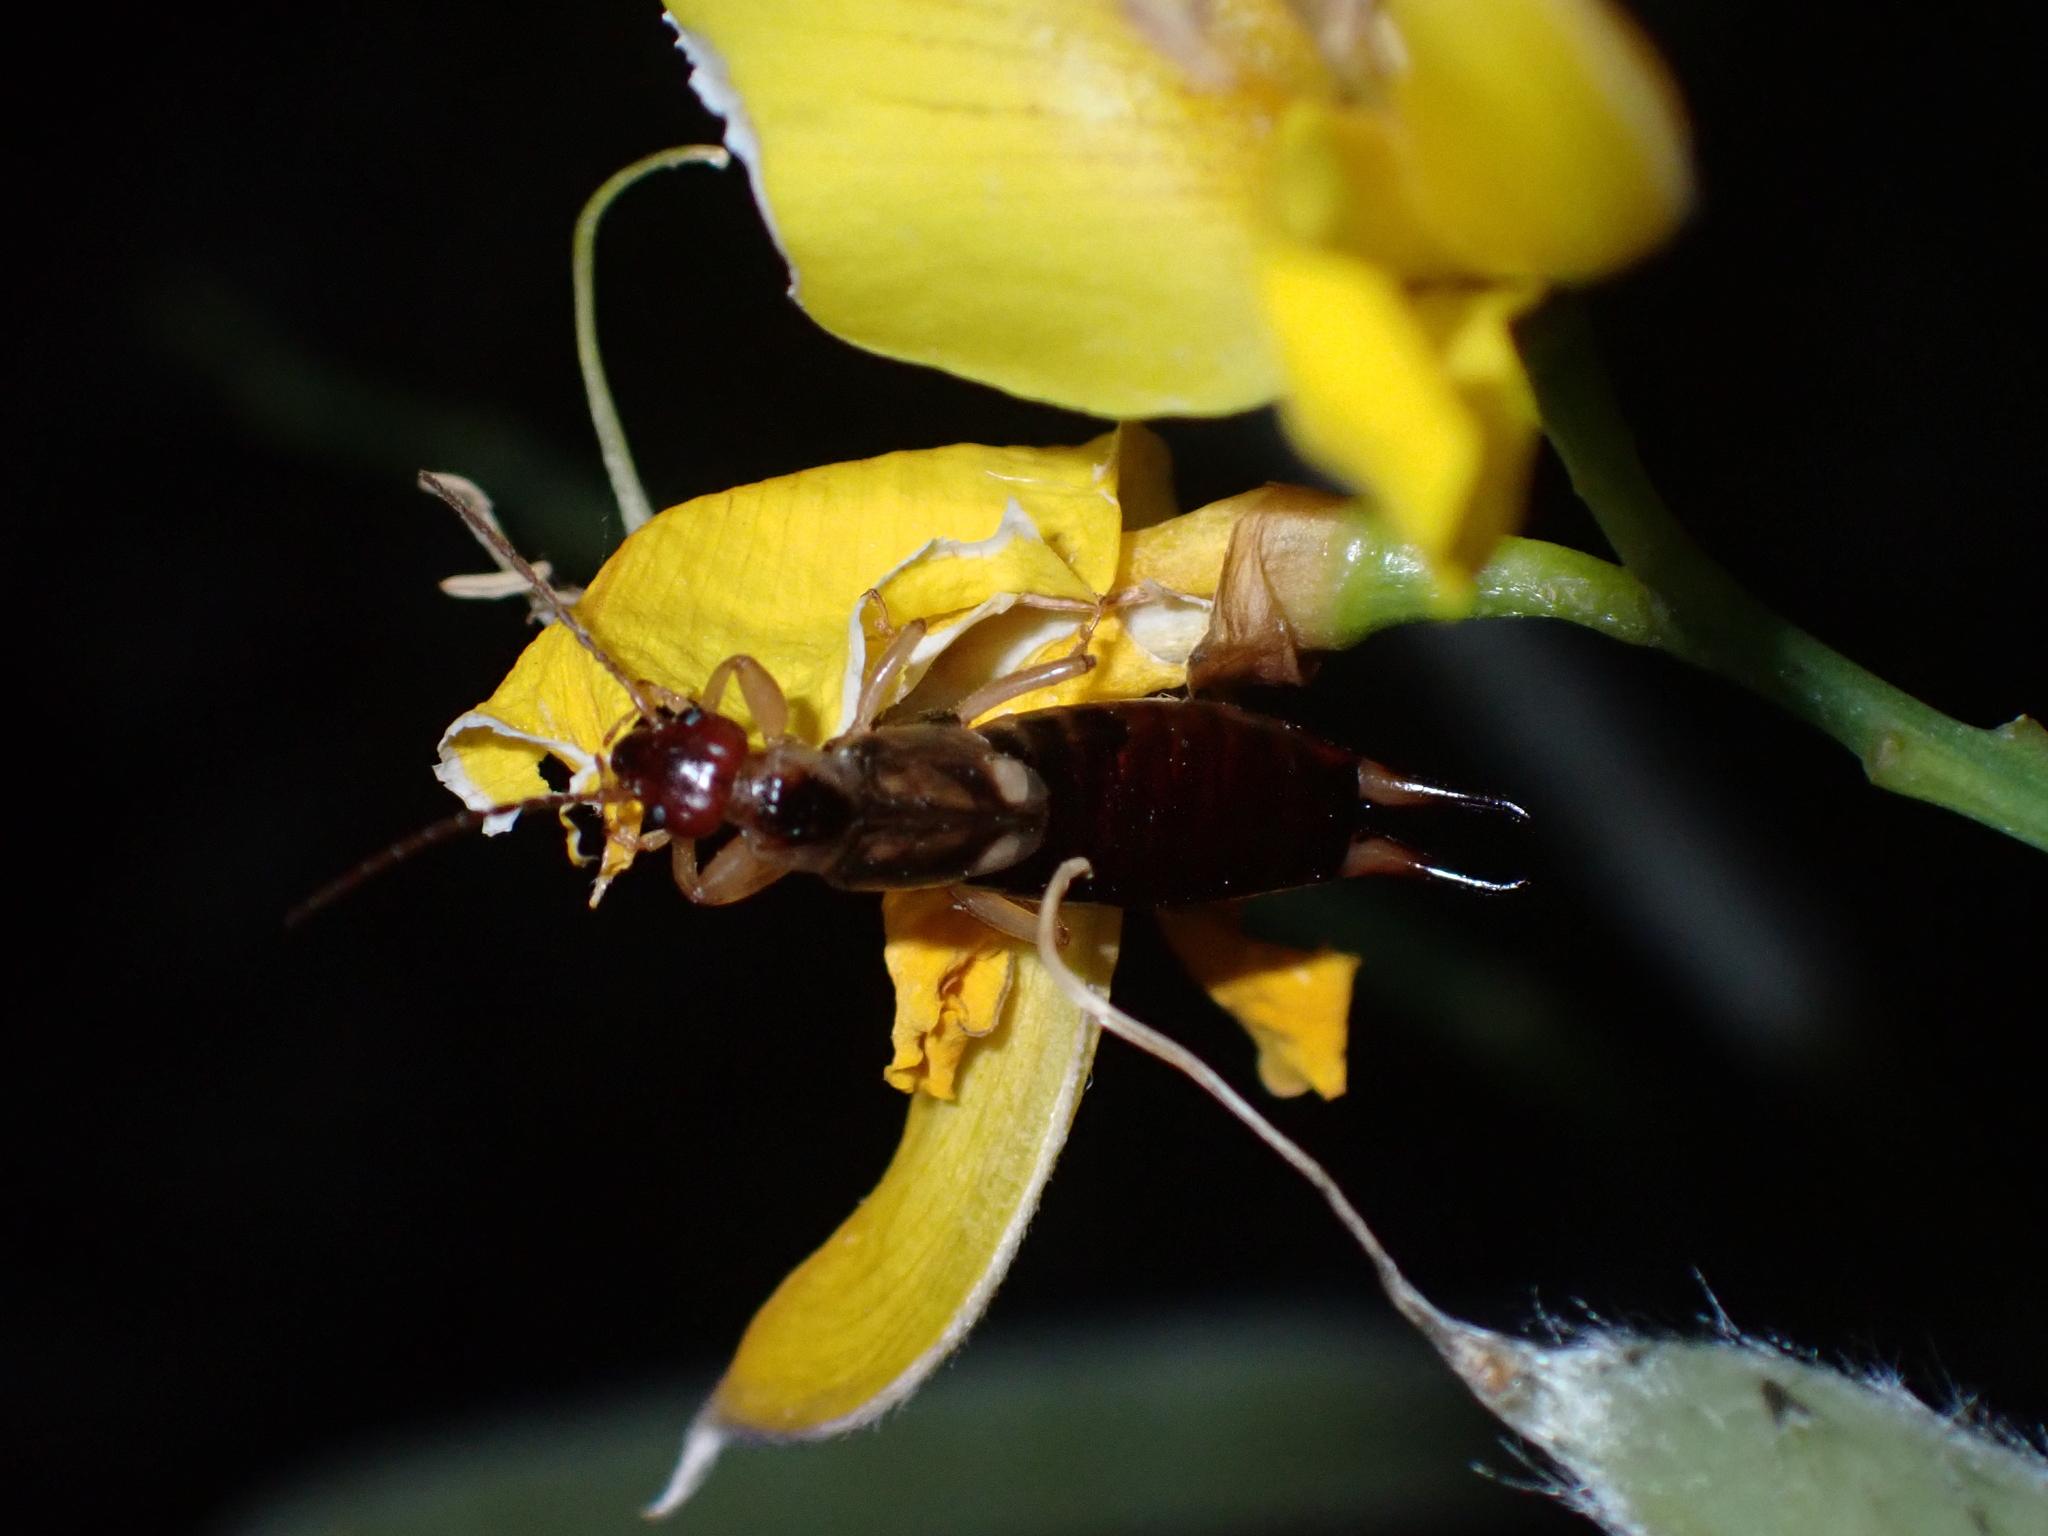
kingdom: Animalia
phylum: Arthropoda
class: Insecta
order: Dermaptera
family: Forficulidae
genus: Forficula
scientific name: Forficula
